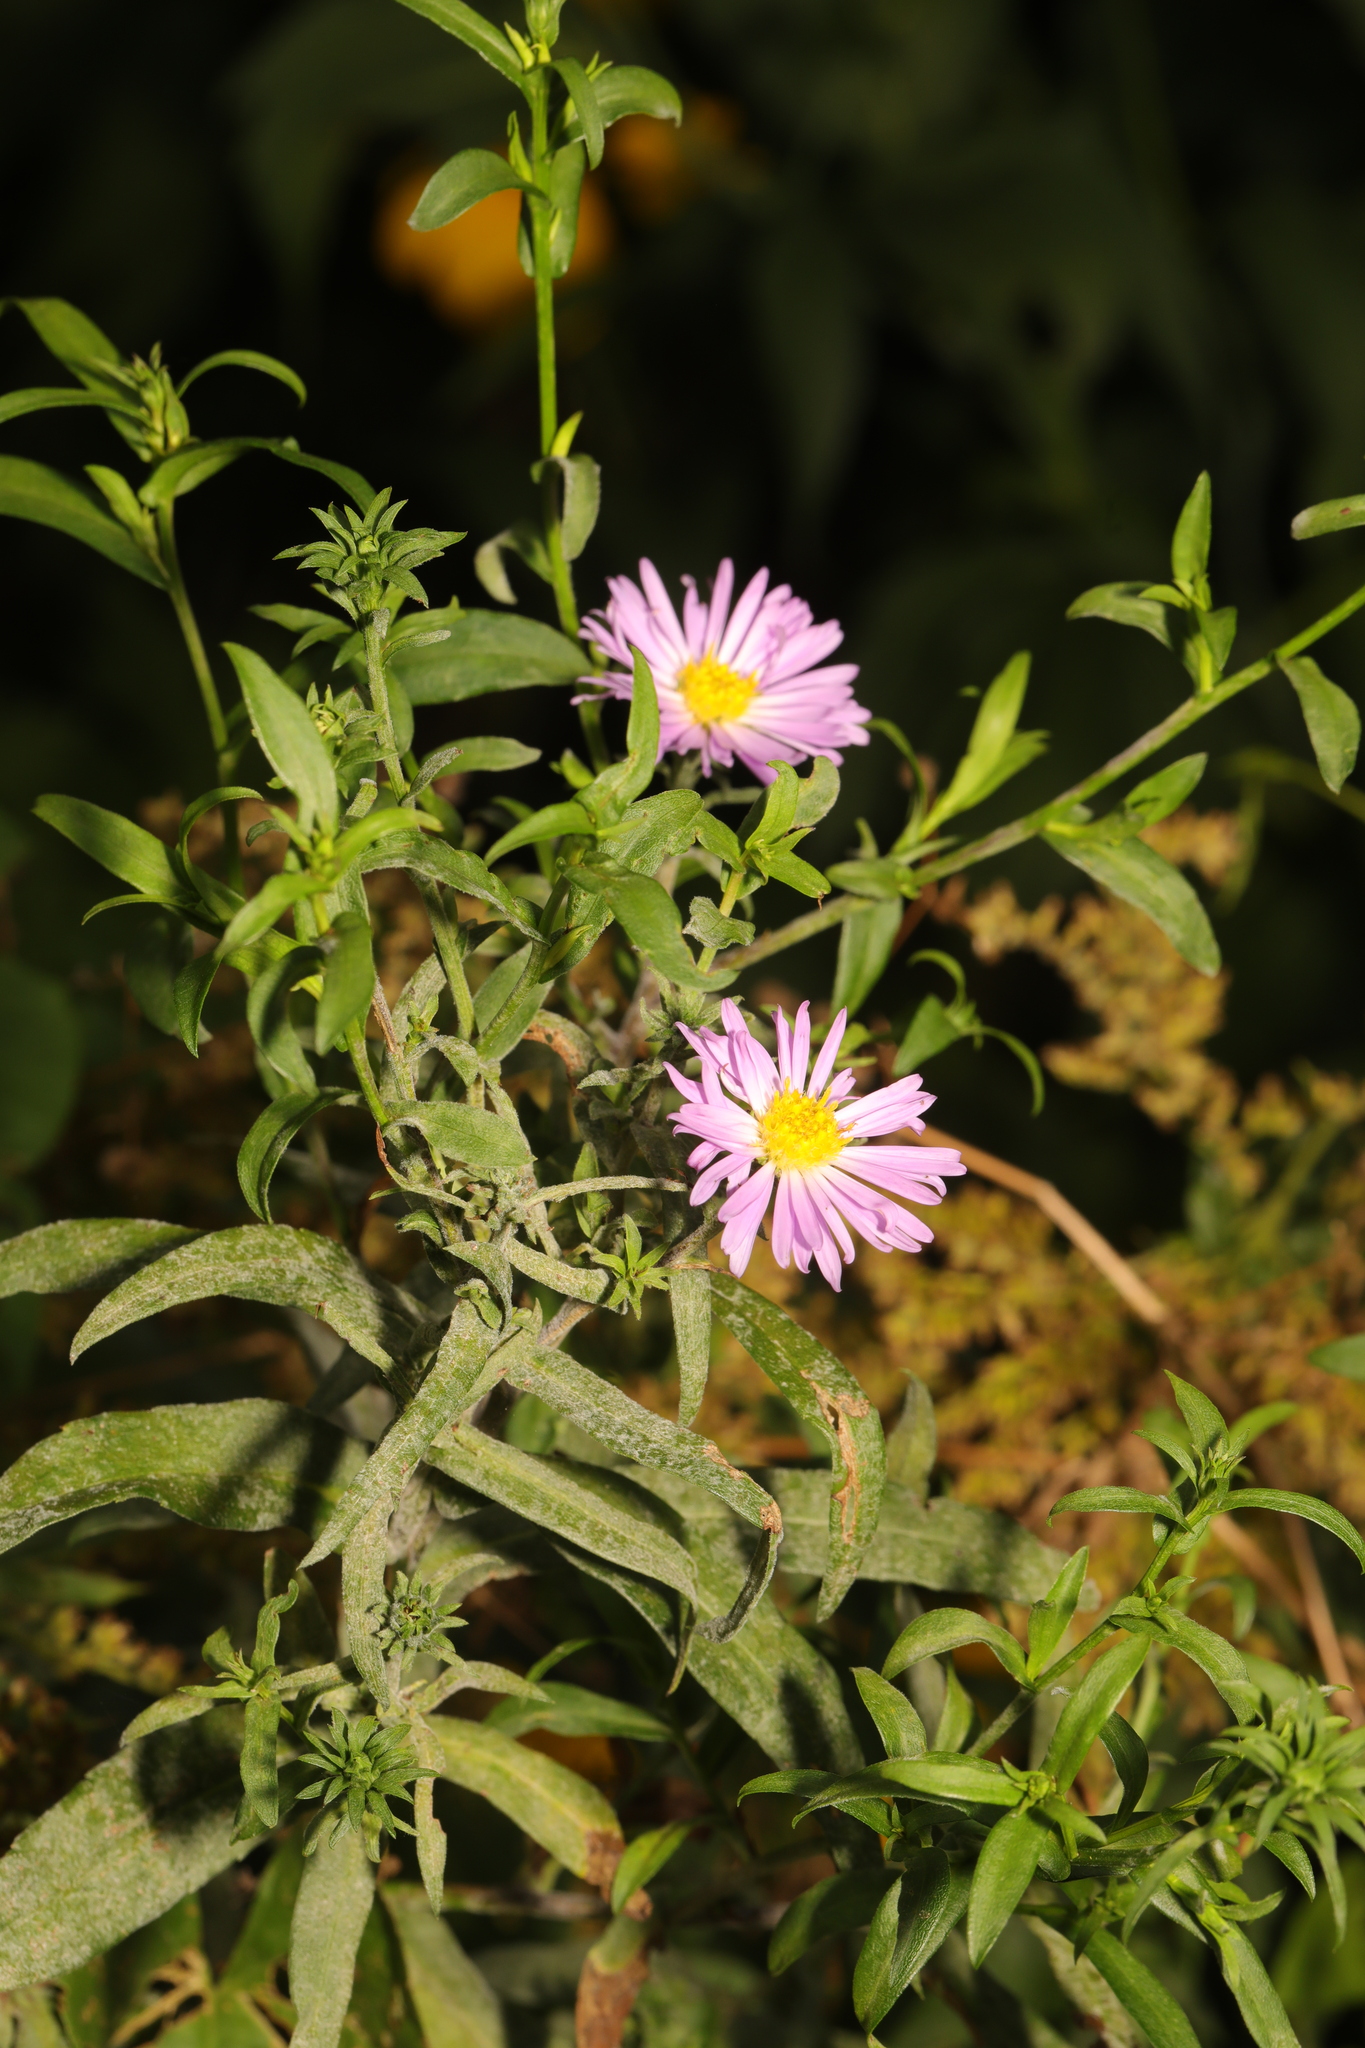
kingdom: Plantae
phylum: Tracheophyta
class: Magnoliopsida
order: Asterales
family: Asteraceae
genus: Symphyotrichum
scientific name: Symphyotrichum
